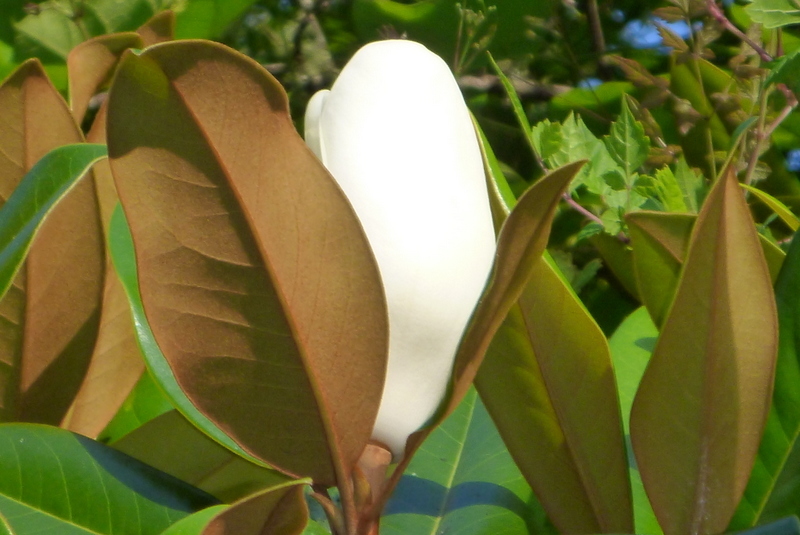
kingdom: Plantae
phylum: Tracheophyta
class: Magnoliopsida
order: Magnoliales
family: Magnoliaceae
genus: Magnolia
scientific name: Magnolia grandiflora
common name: Southern magnolia
